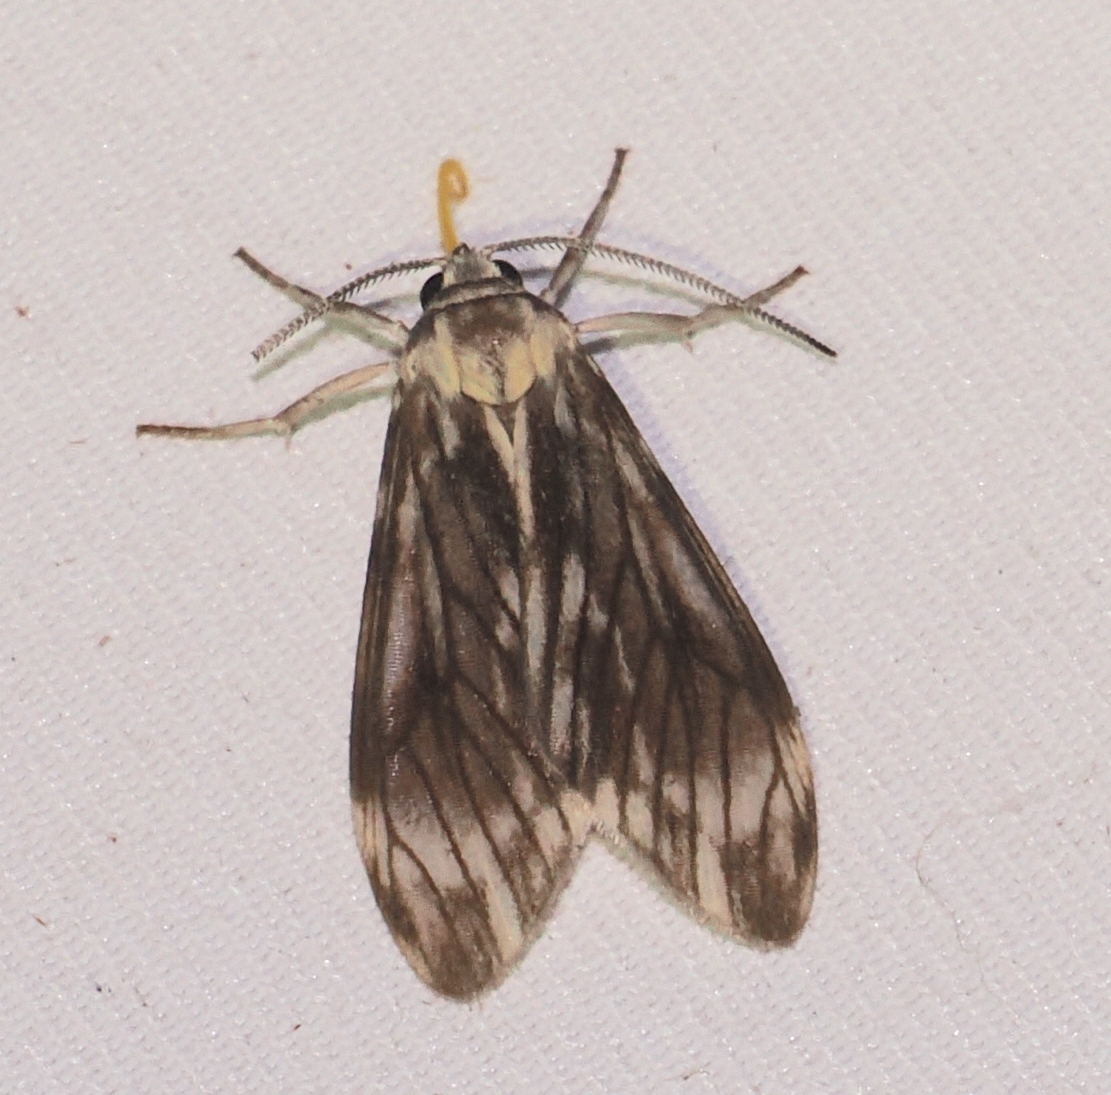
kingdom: Animalia
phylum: Arthropoda
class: Insecta
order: Lepidoptera
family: Erebidae
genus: Eucereon
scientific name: Eucereon pittieri
